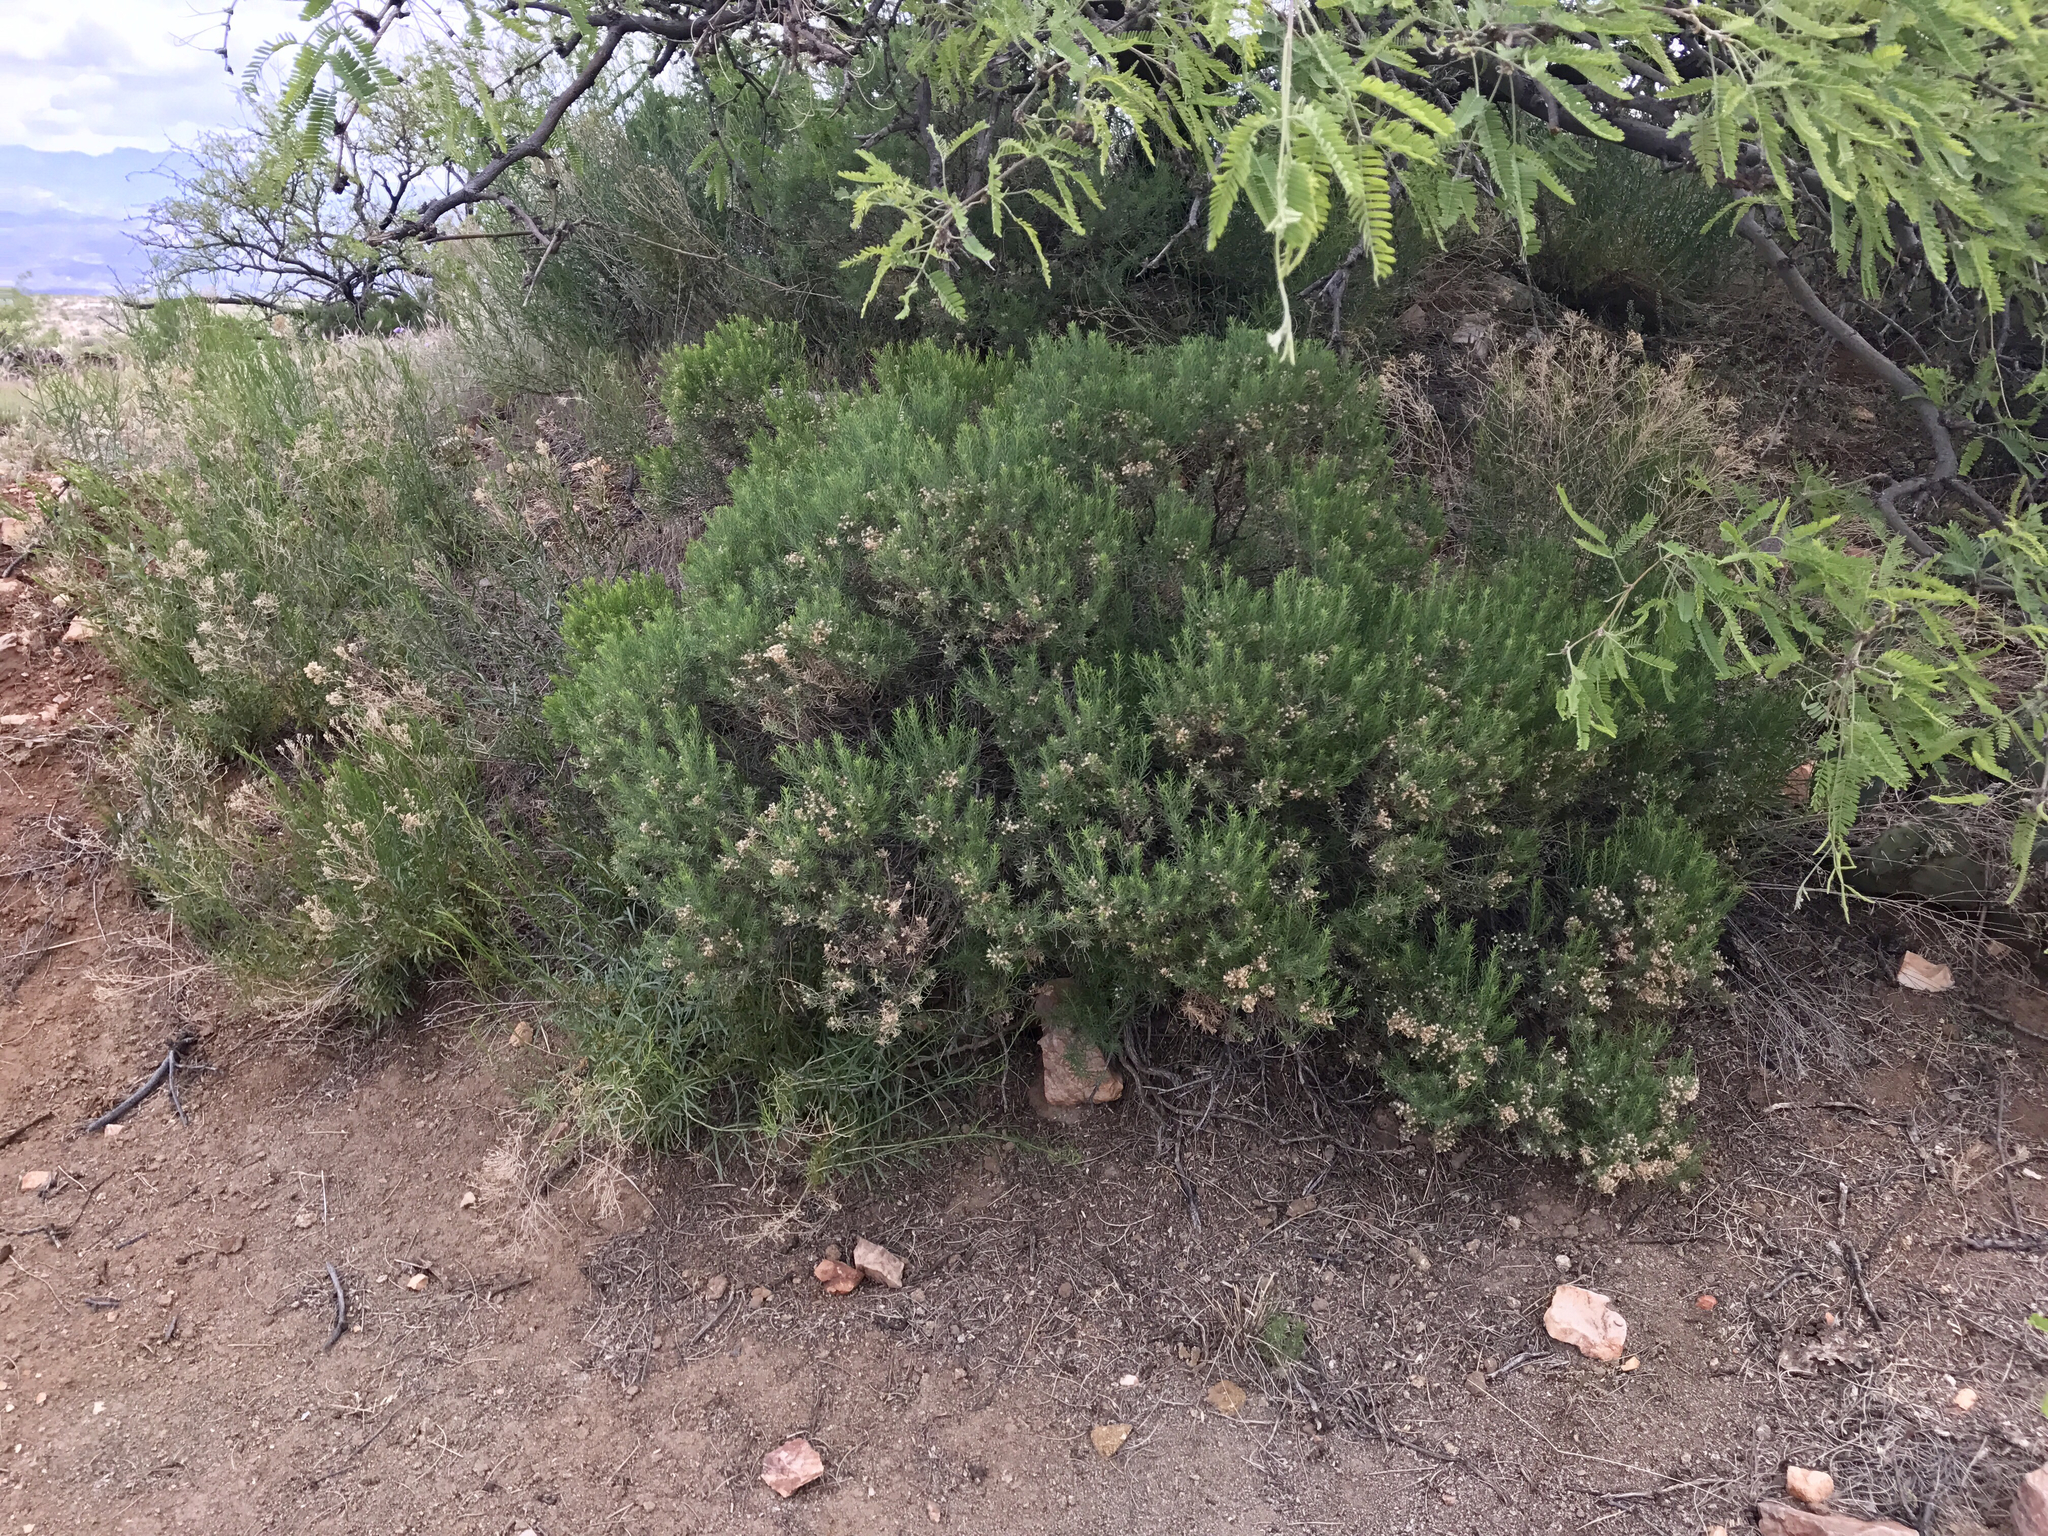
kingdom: Plantae
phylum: Tracheophyta
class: Magnoliopsida
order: Asterales
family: Asteraceae
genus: Ericameria
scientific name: Ericameria laricifolia
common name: Turpentine-bush
